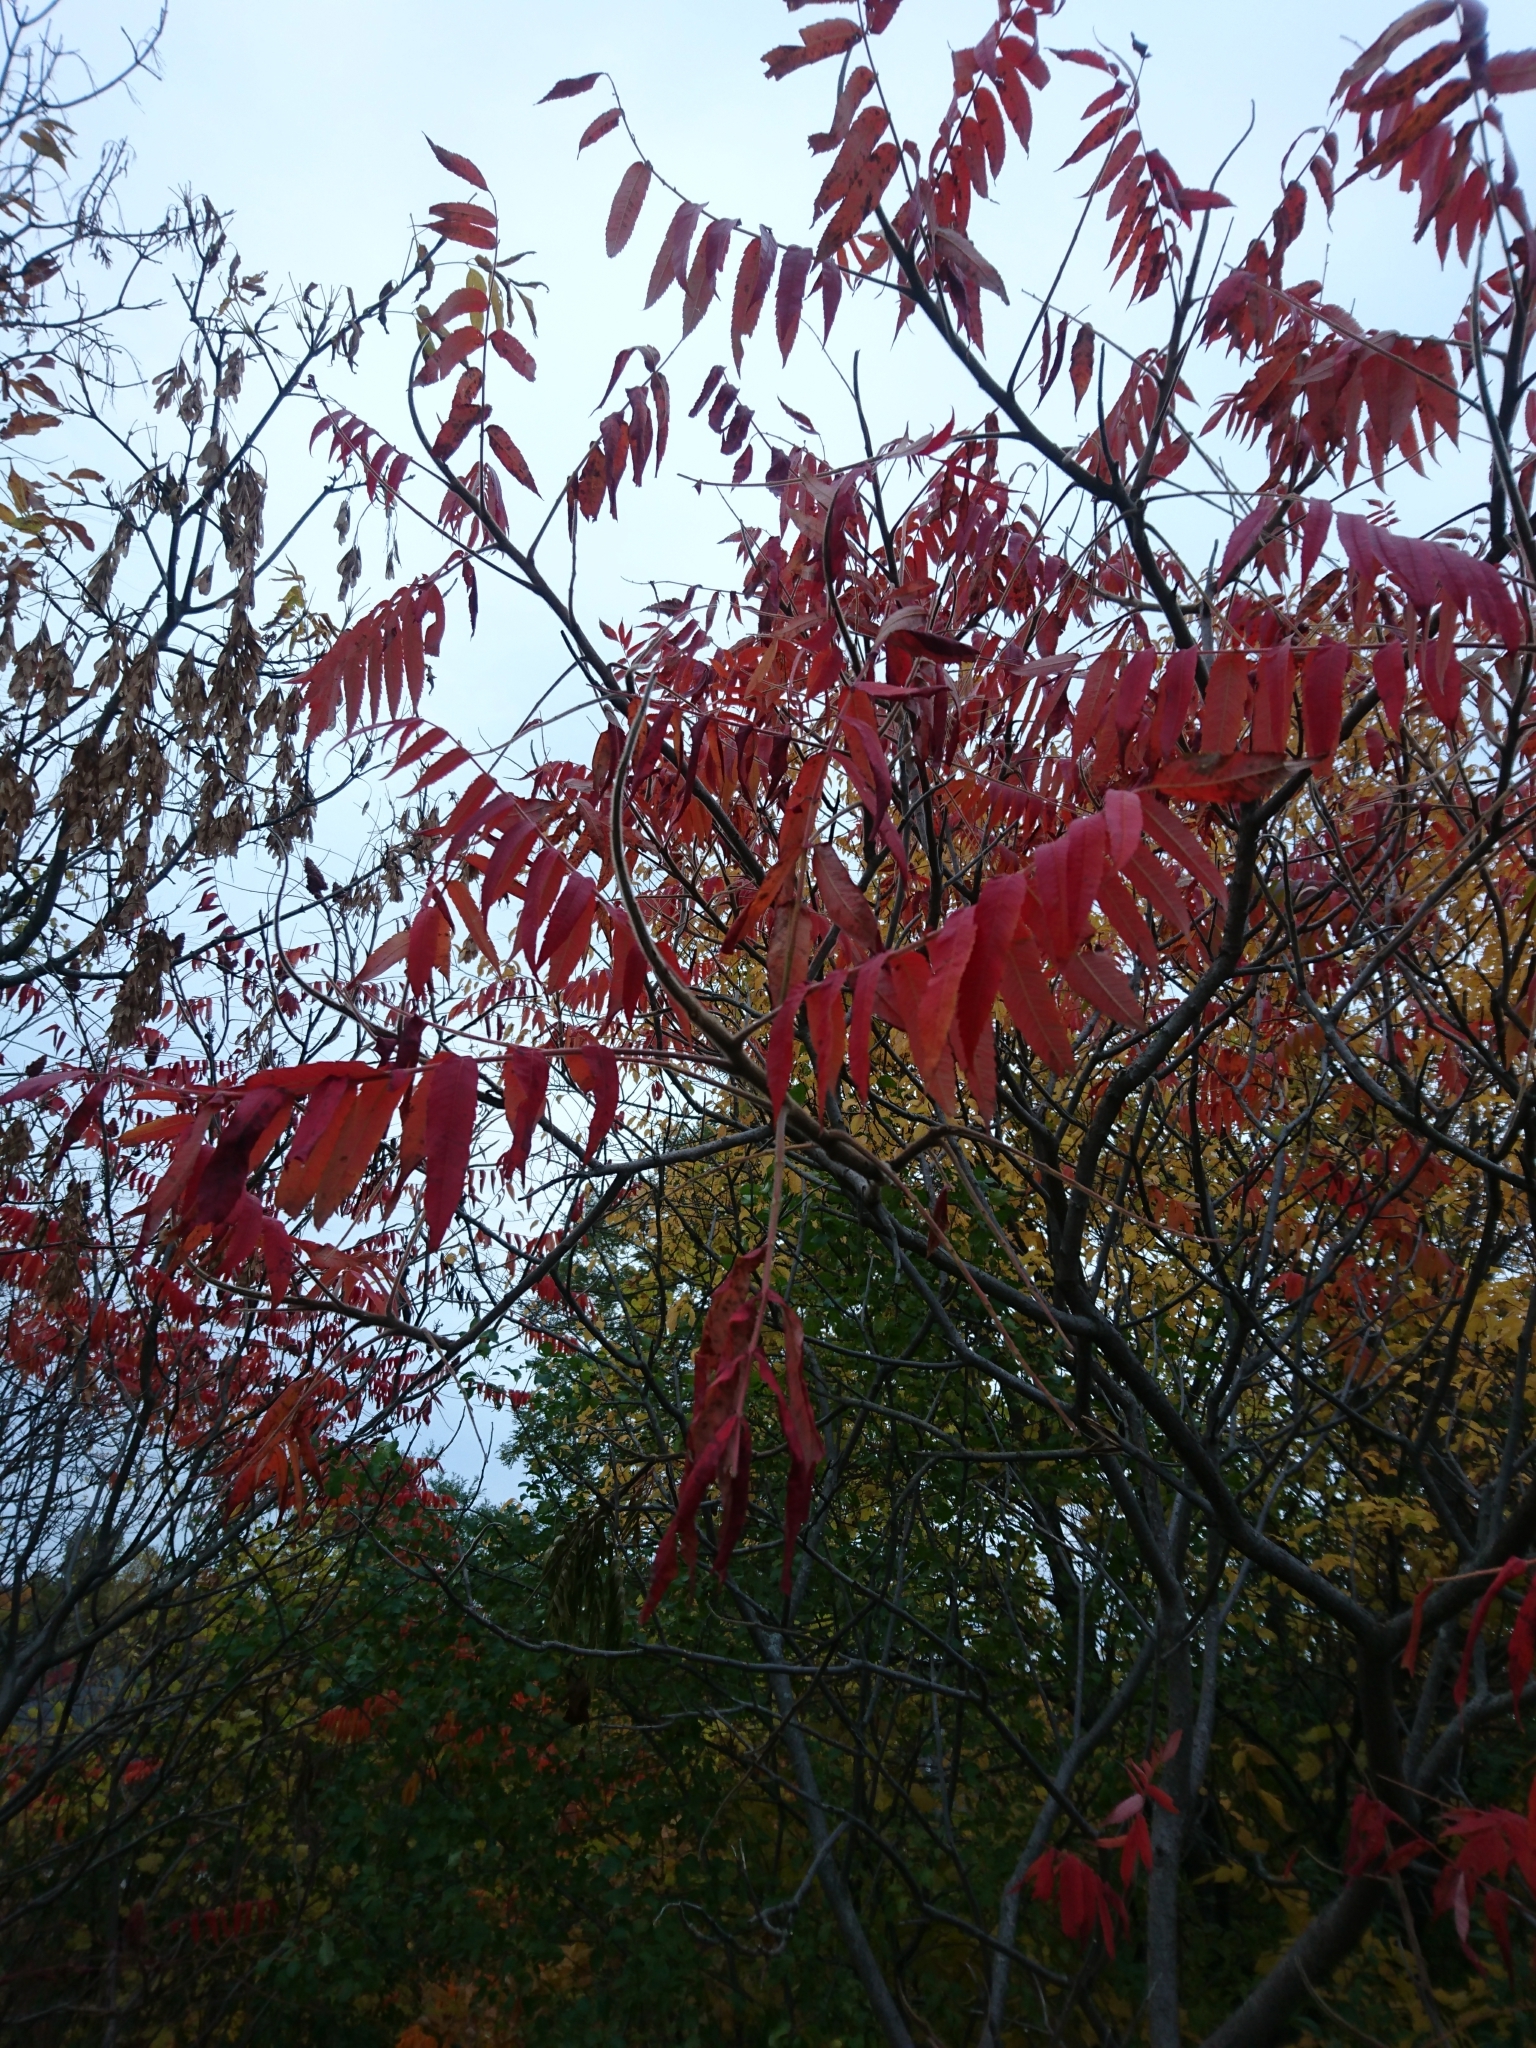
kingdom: Plantae
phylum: Tracheophyta
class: Magnoliopsida
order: Sapindales
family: Anacardiaceae
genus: Rhus
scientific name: Rhus typhina
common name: Staghorn sumac
